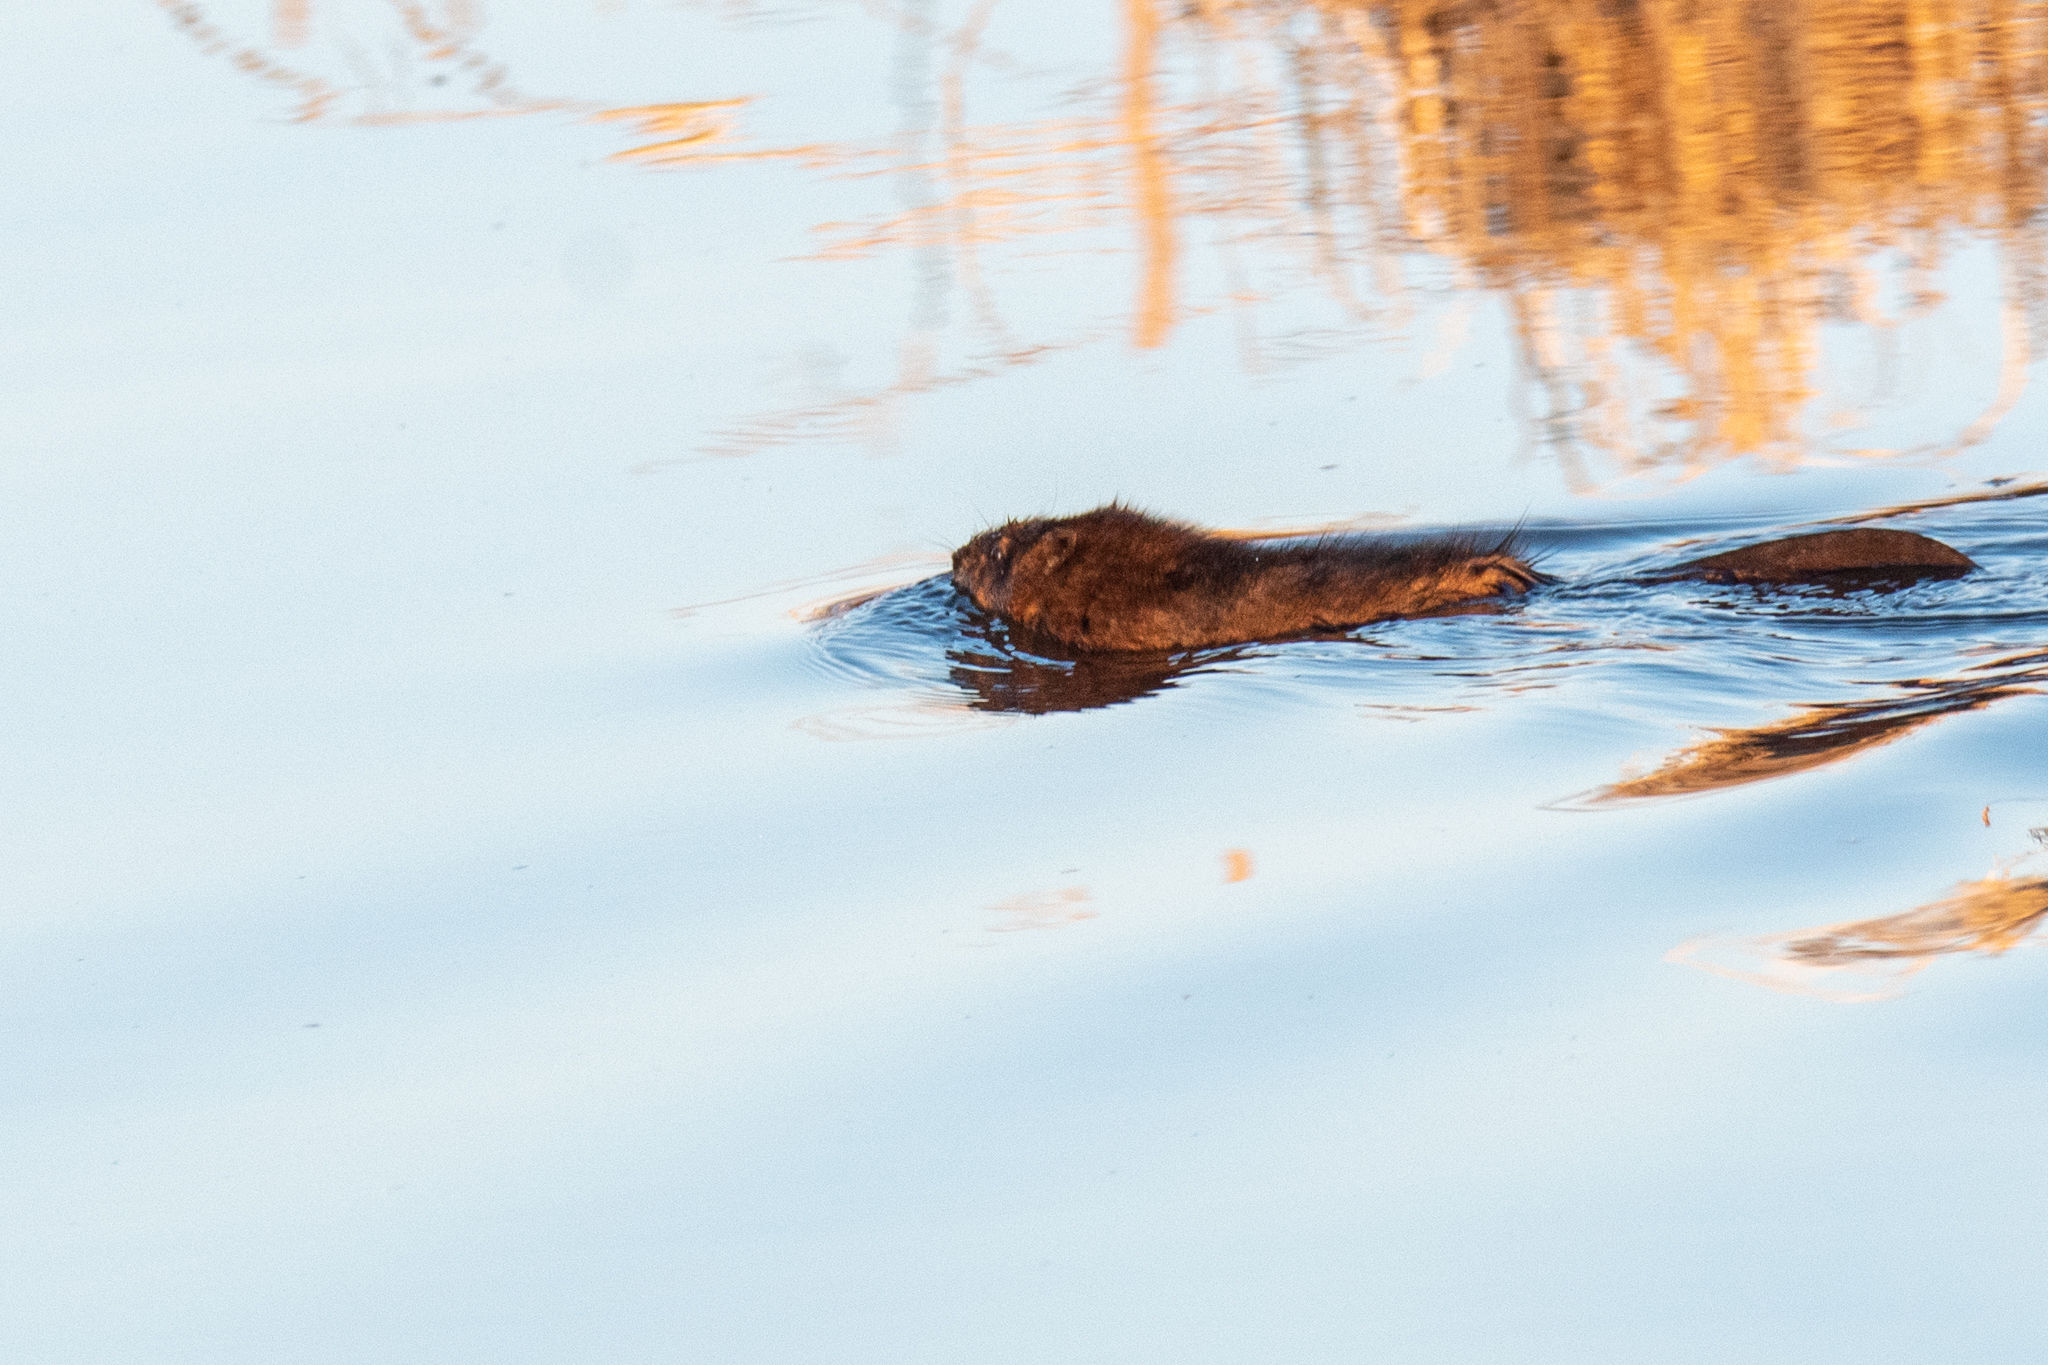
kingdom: Animalia
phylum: Chordata
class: Mammalia
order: Rodentia
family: Cricetidae
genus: Ondatra
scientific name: Ondatra zibethicus
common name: Muskrat
